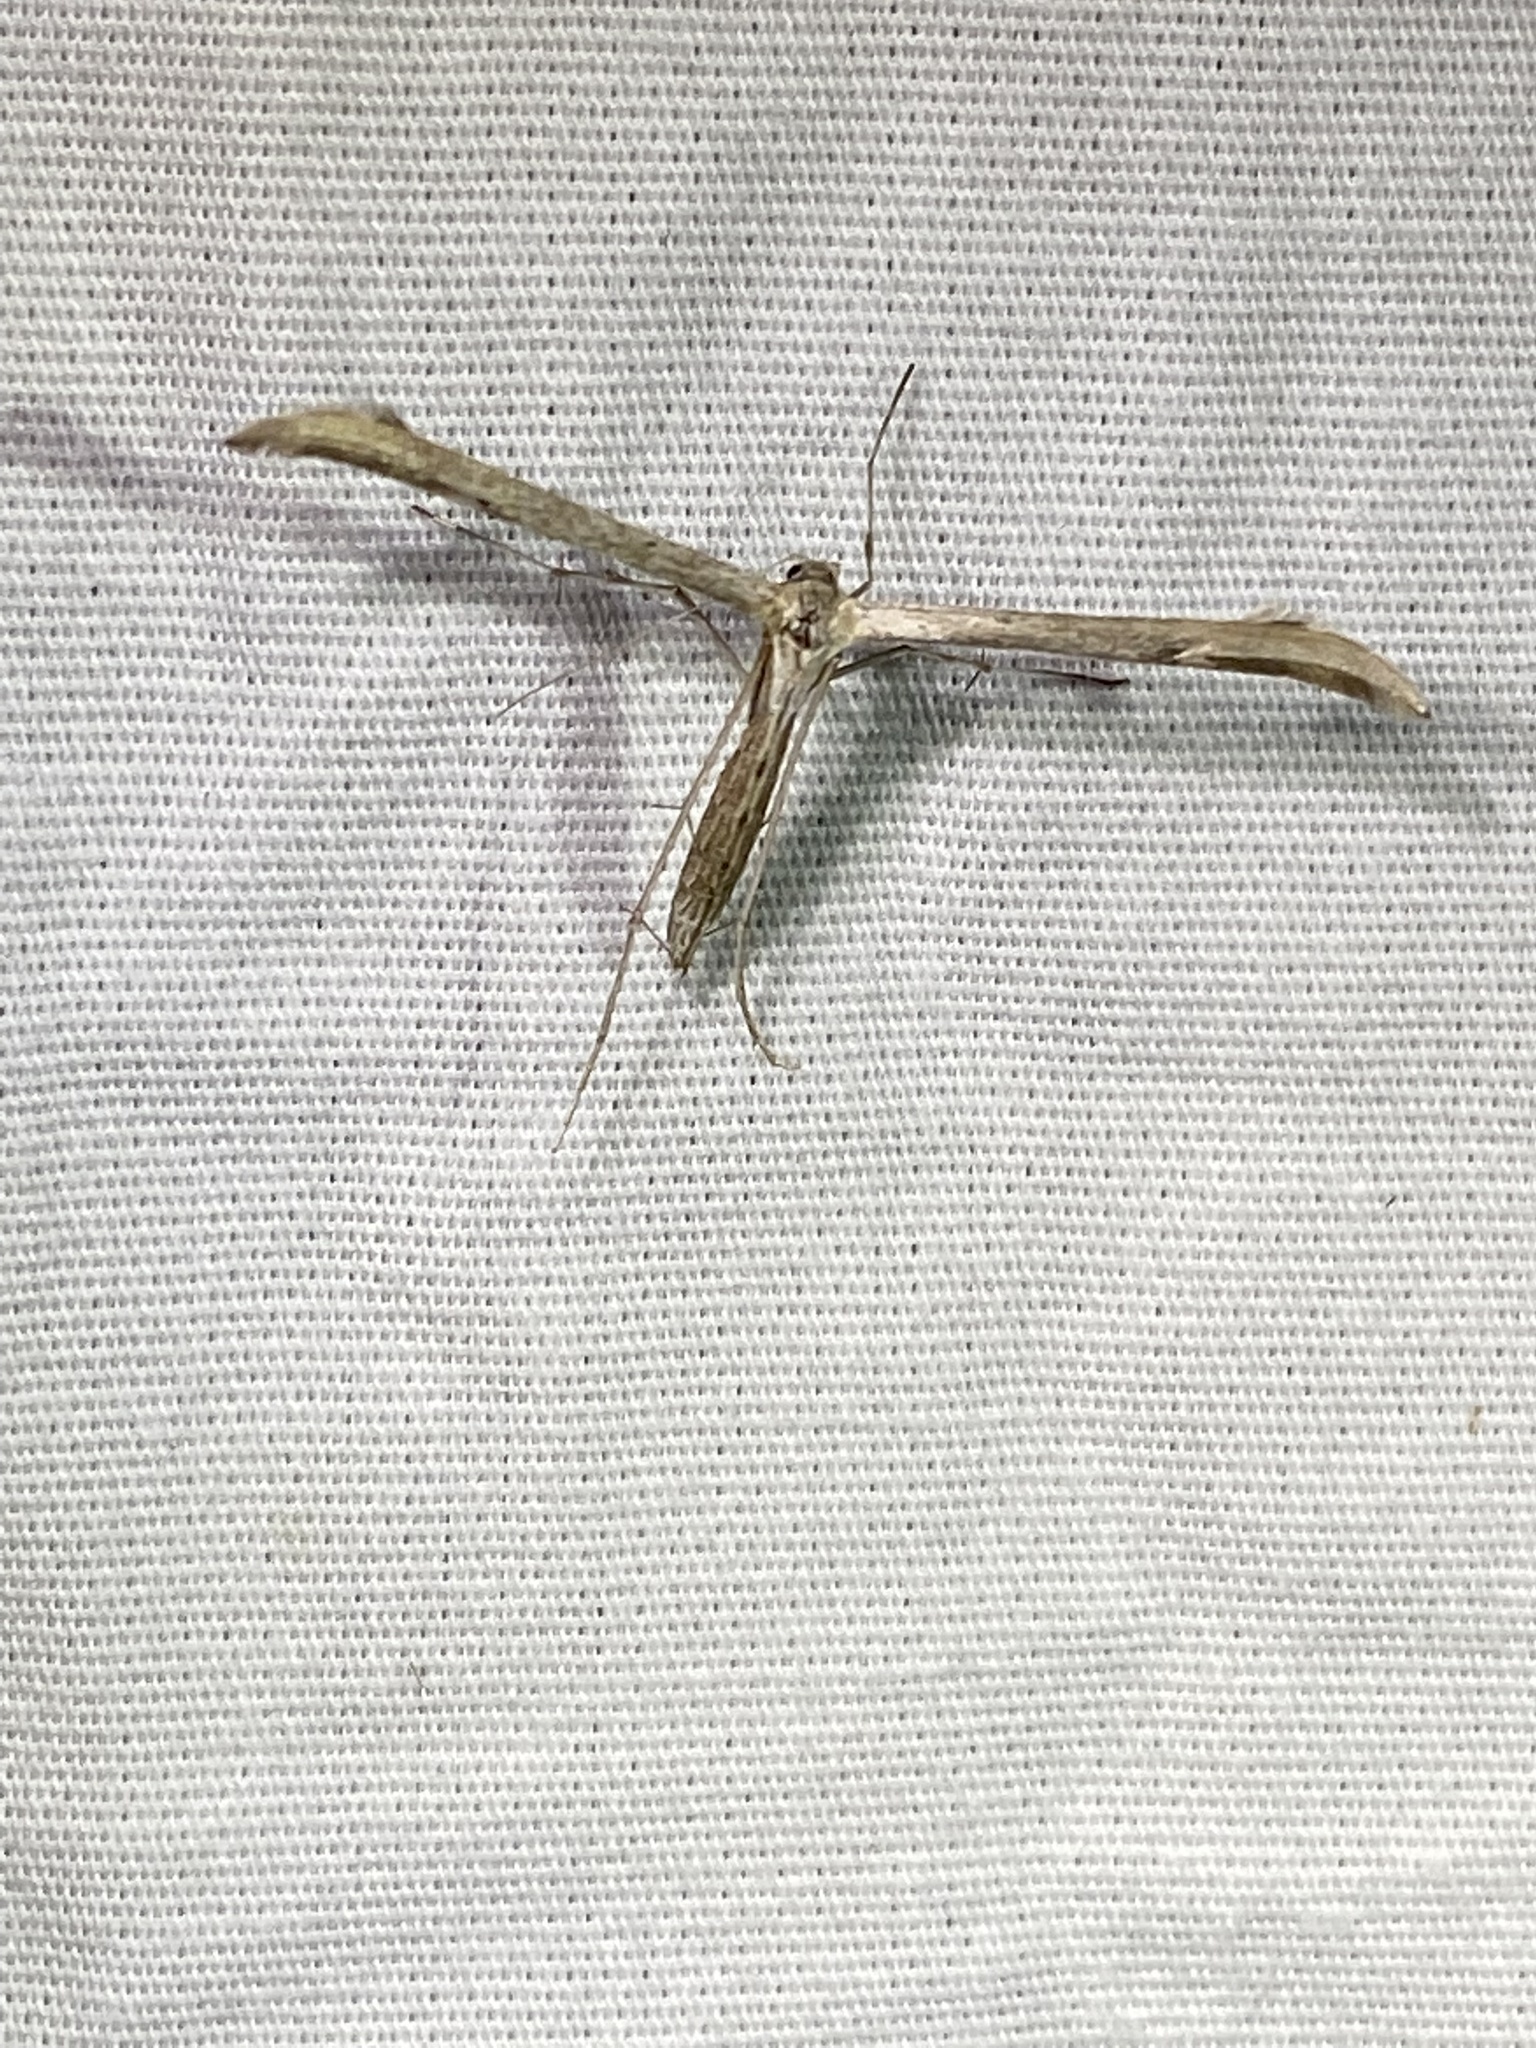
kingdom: Animalia
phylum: Arthropoda
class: Insecta
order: Lepidoptera
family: Pterophoridae
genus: Emmelina
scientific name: Emmelina monodactyla
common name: Common plume
